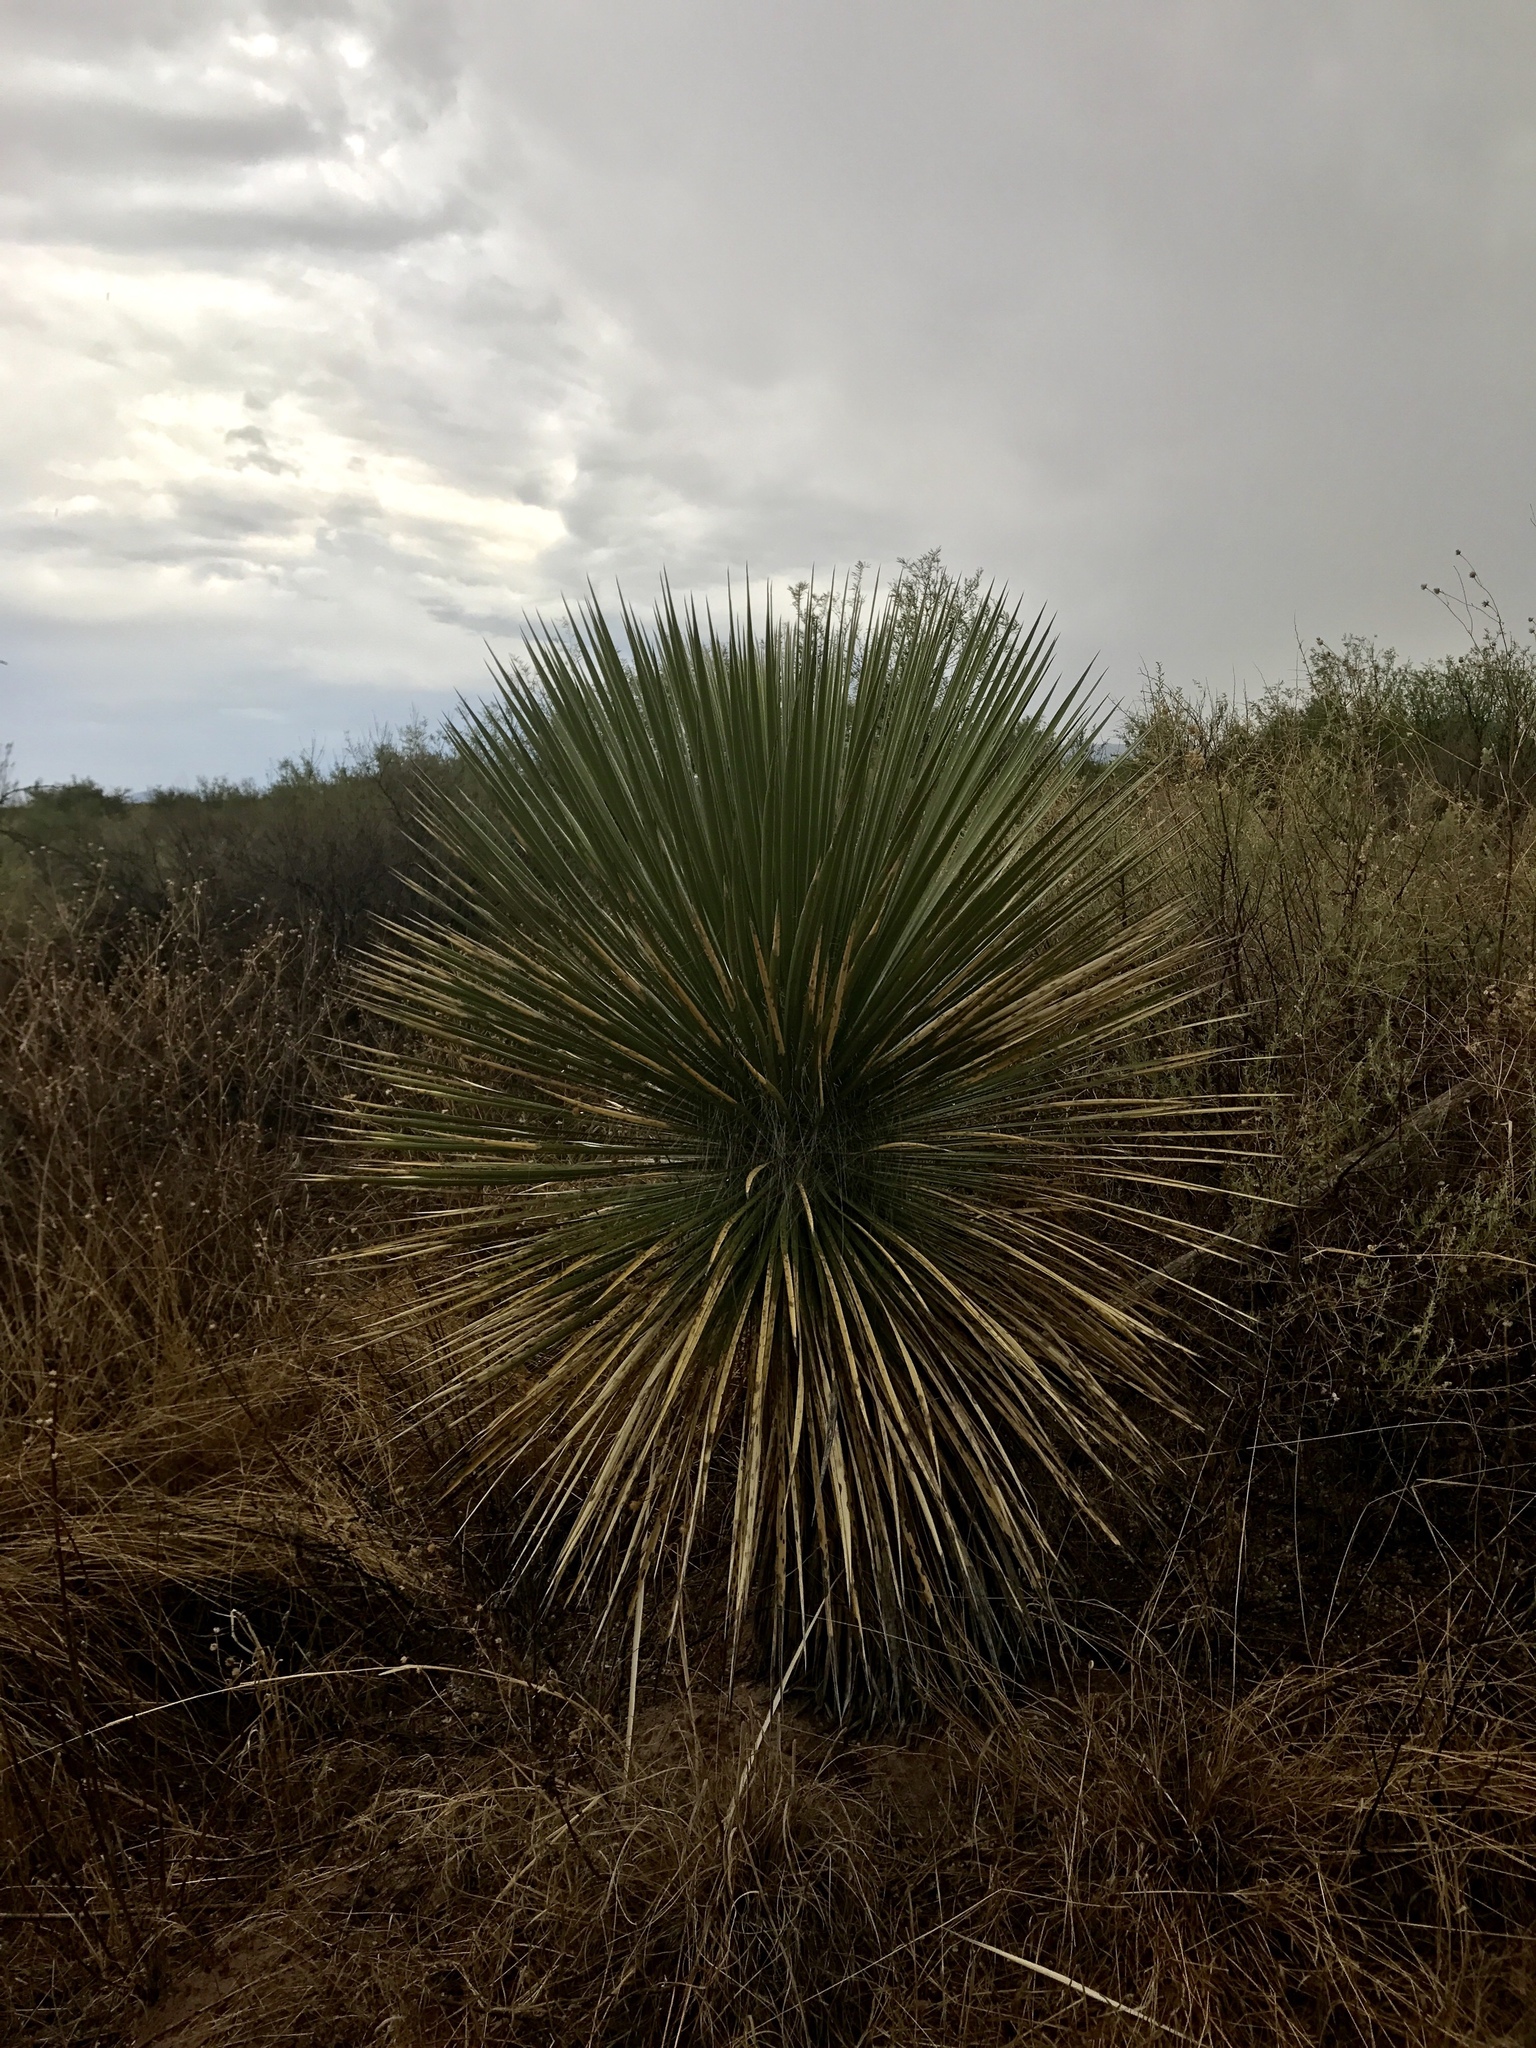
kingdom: Plantae
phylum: Tracheophyta
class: Liliopsida
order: Asparagales
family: Asparagaceae
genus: Yucca
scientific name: Yucca elata
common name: Palmella
